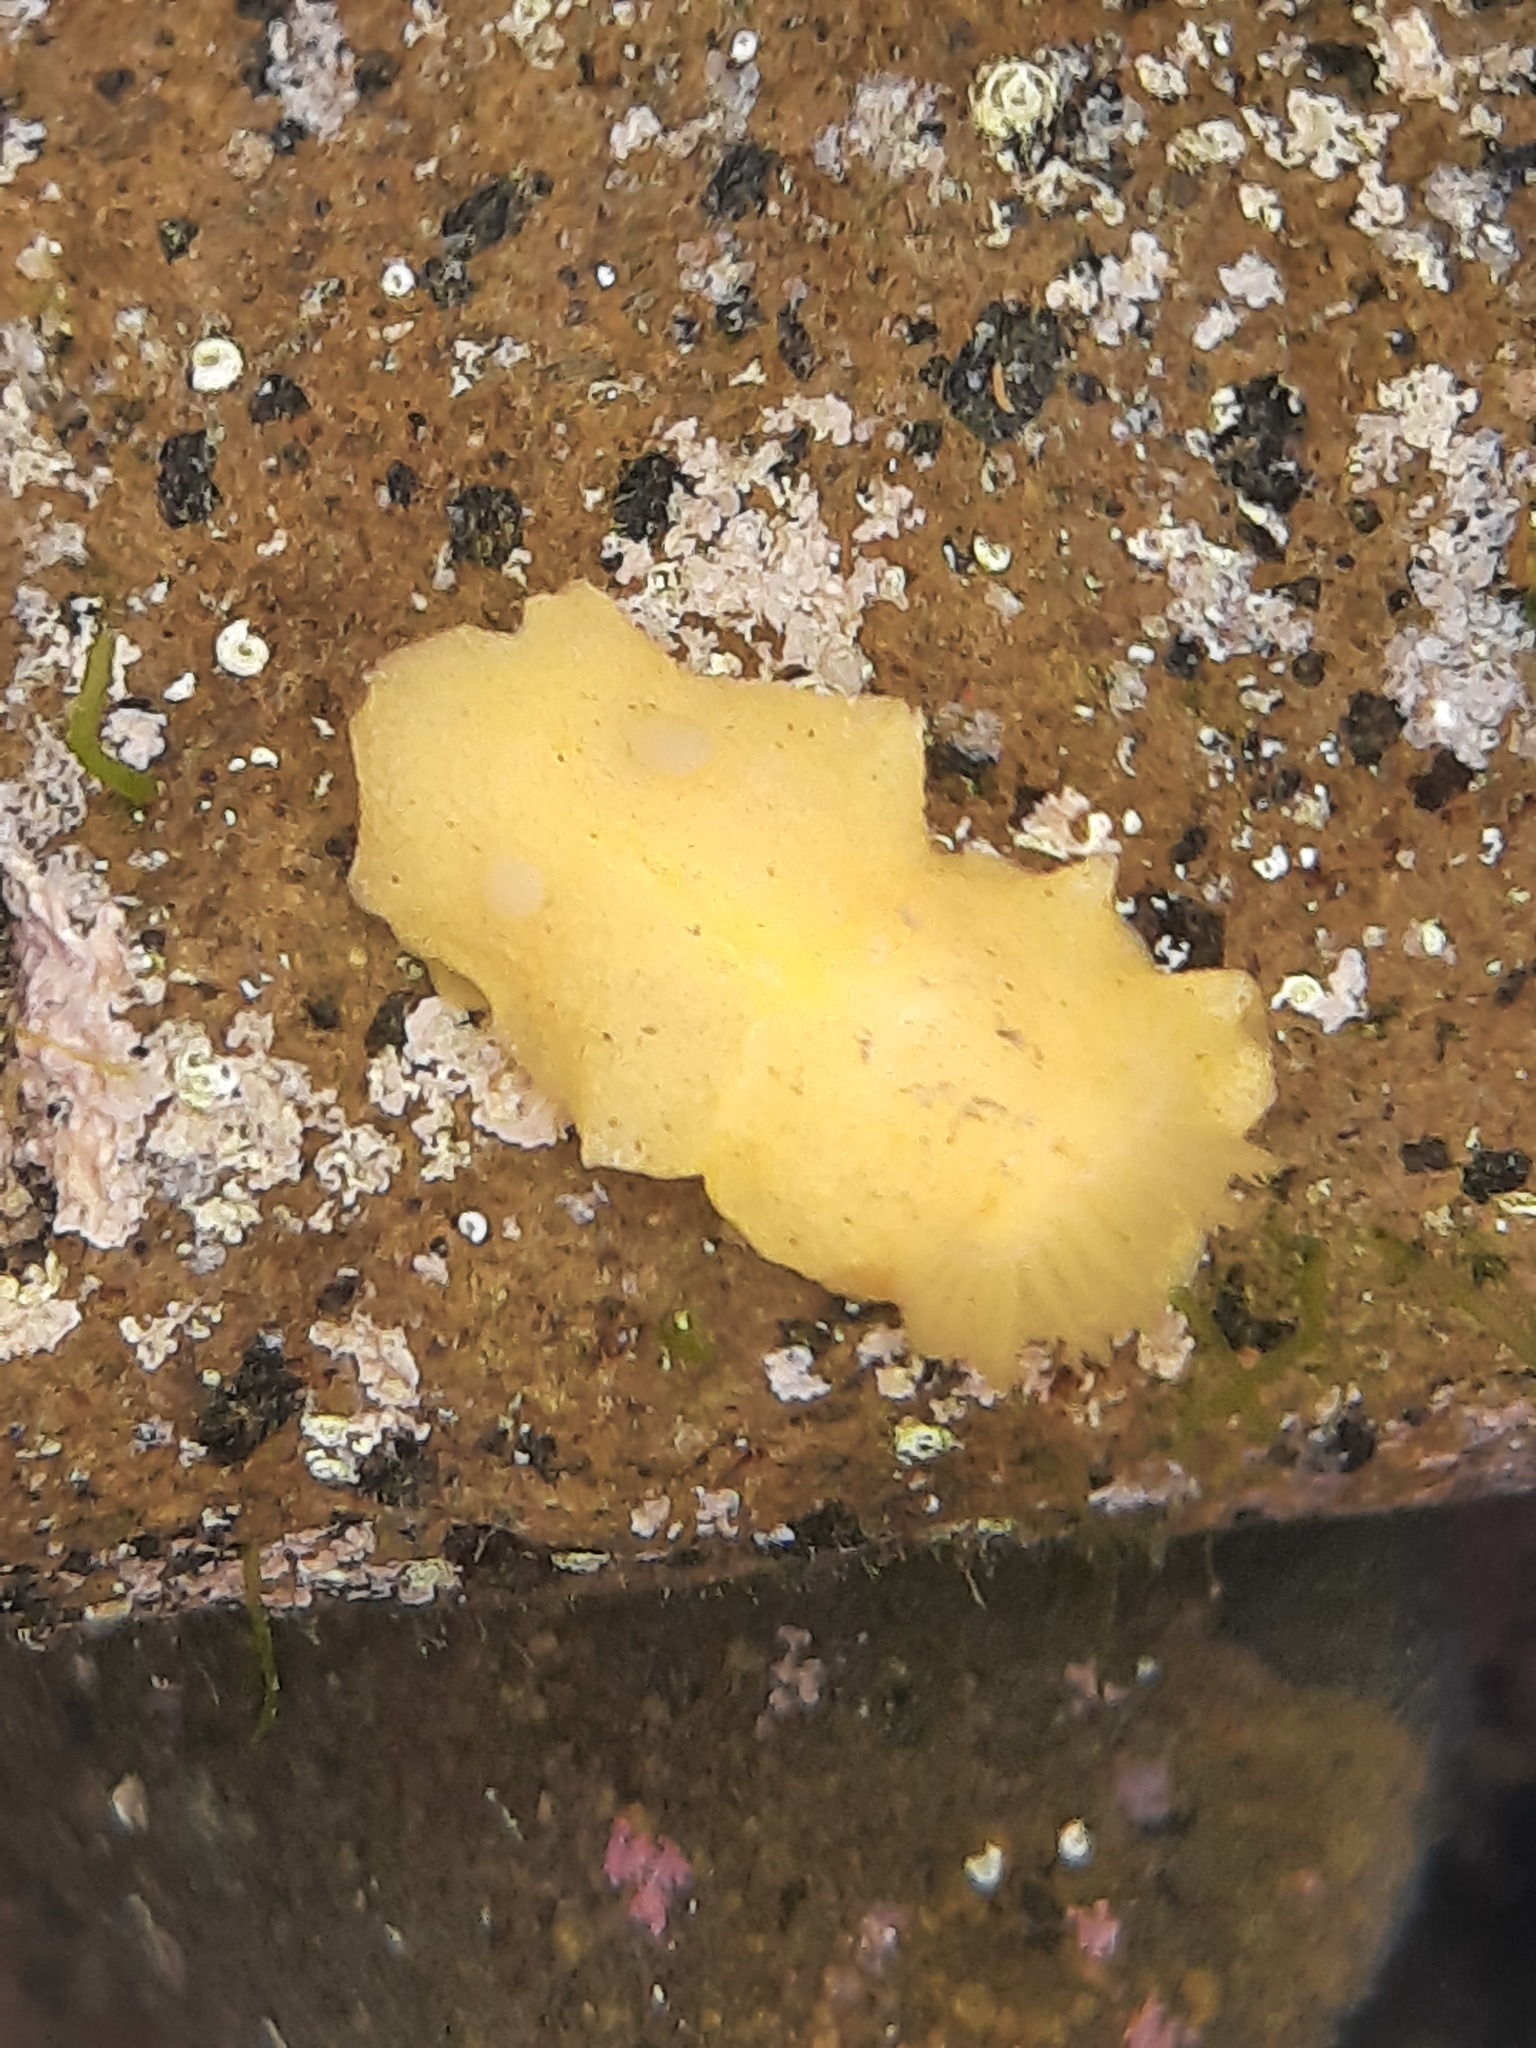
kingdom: Animalia
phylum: Mollusca
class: Gastropoda
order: Nudibranchia
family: Dorididae
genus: Doriopsis
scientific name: Doriopsis granulosa
